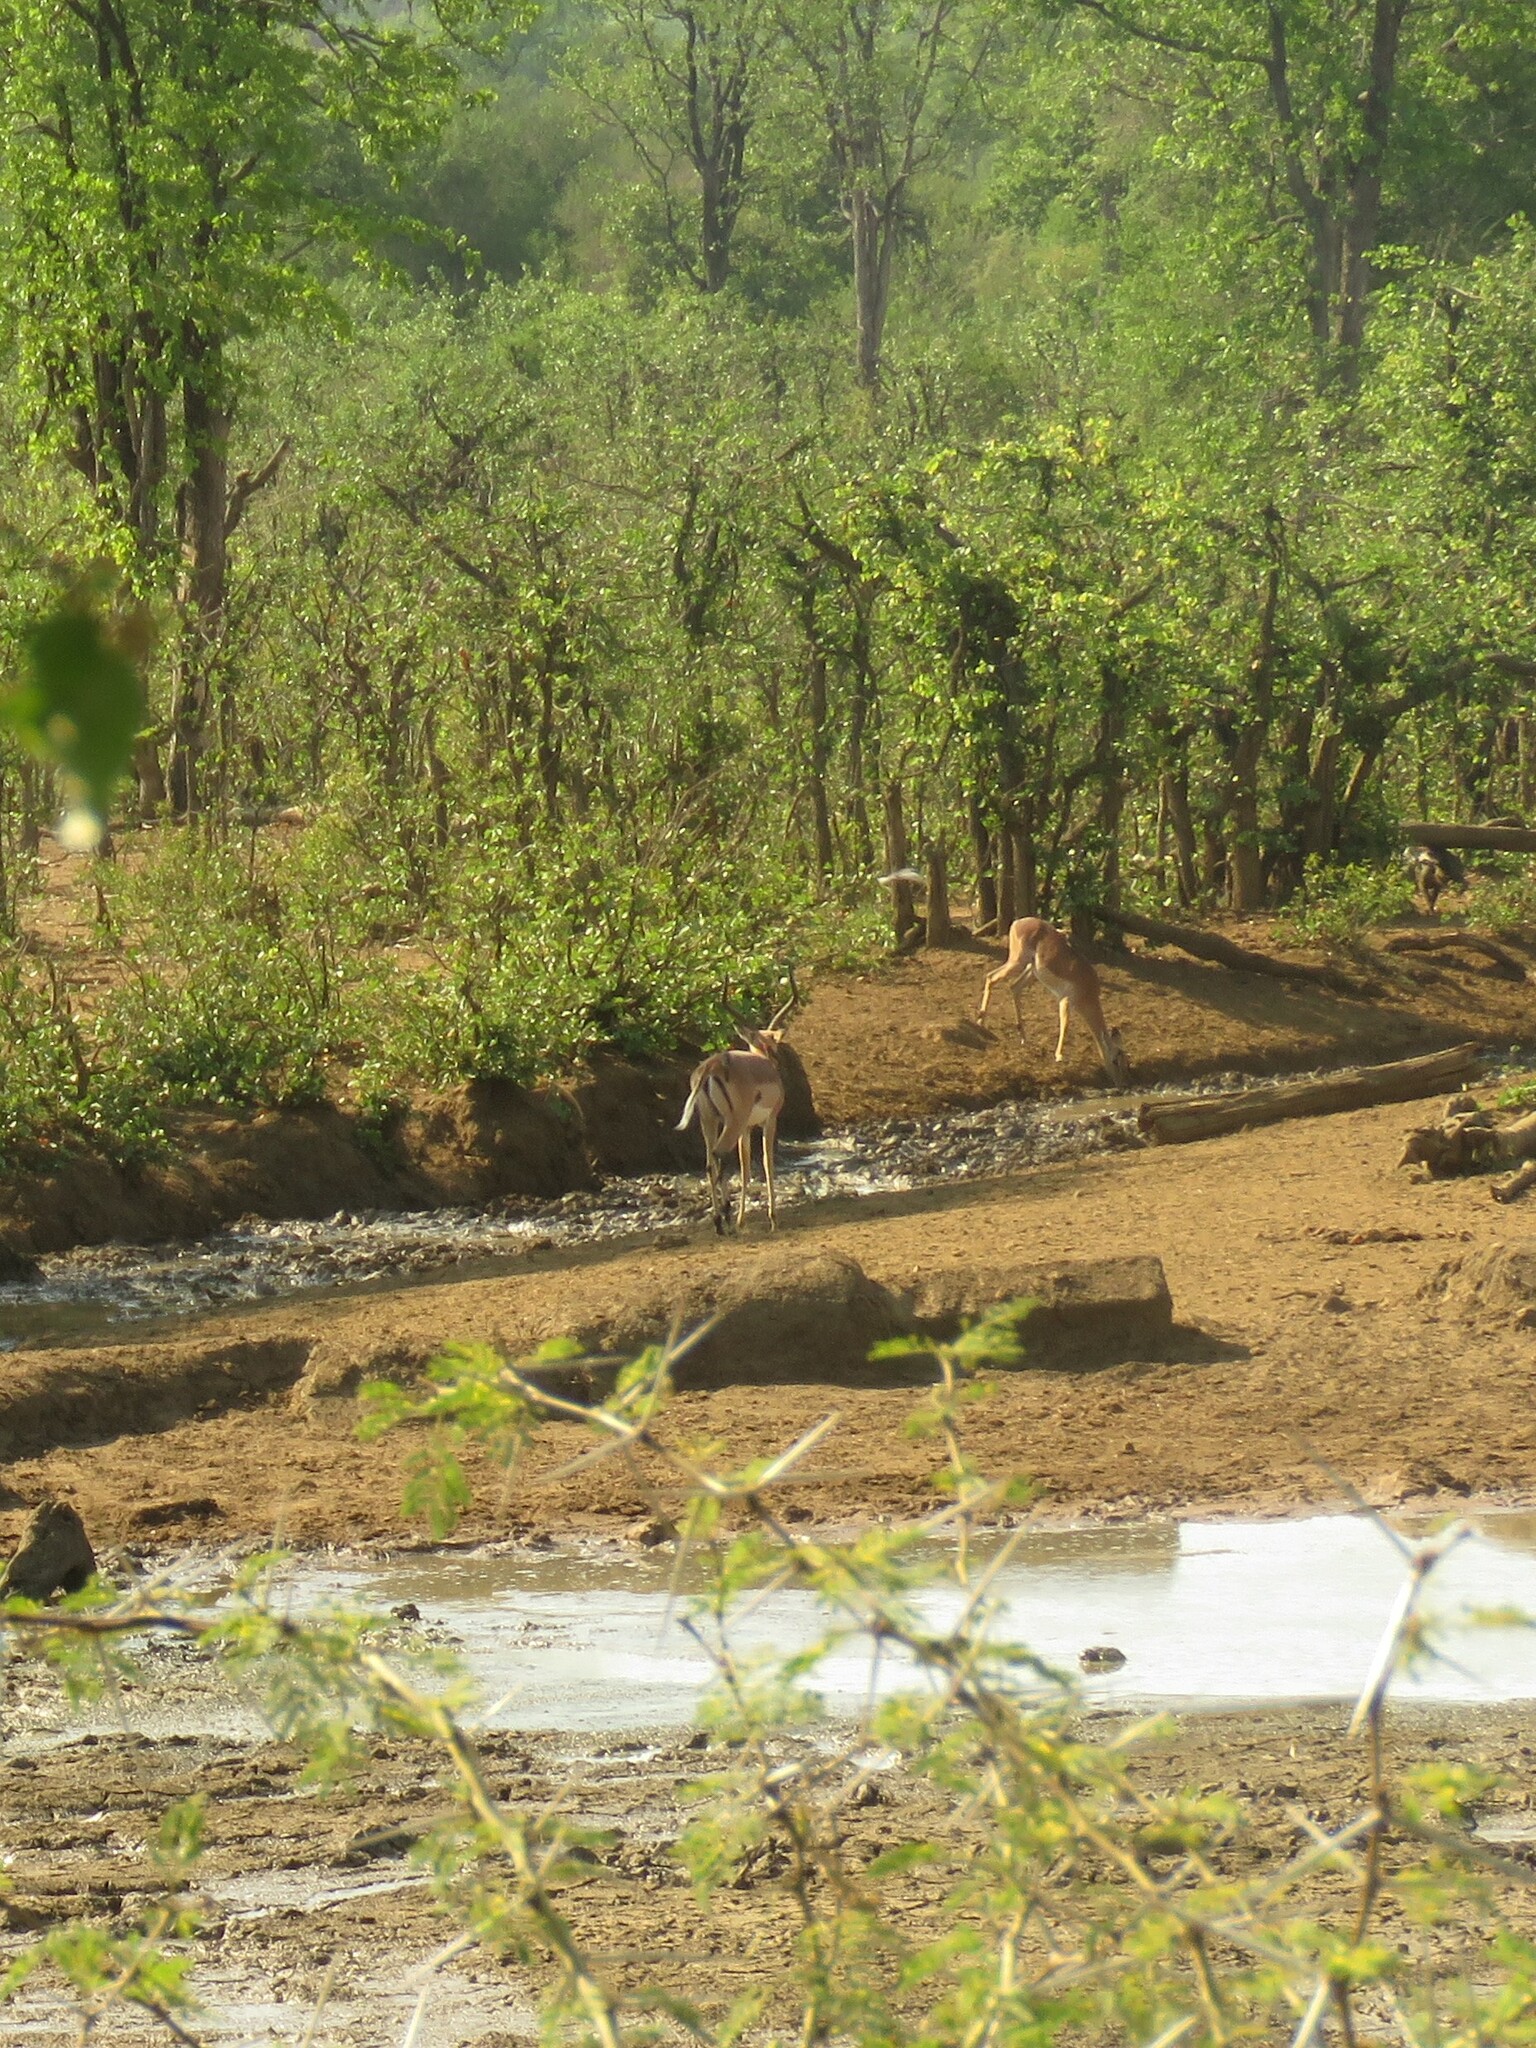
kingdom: Animalia
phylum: Chordata
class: Mammalia
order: Artiodactyla
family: Bovidae
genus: Aepyceros
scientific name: Aepyceros melampus
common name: Impala
